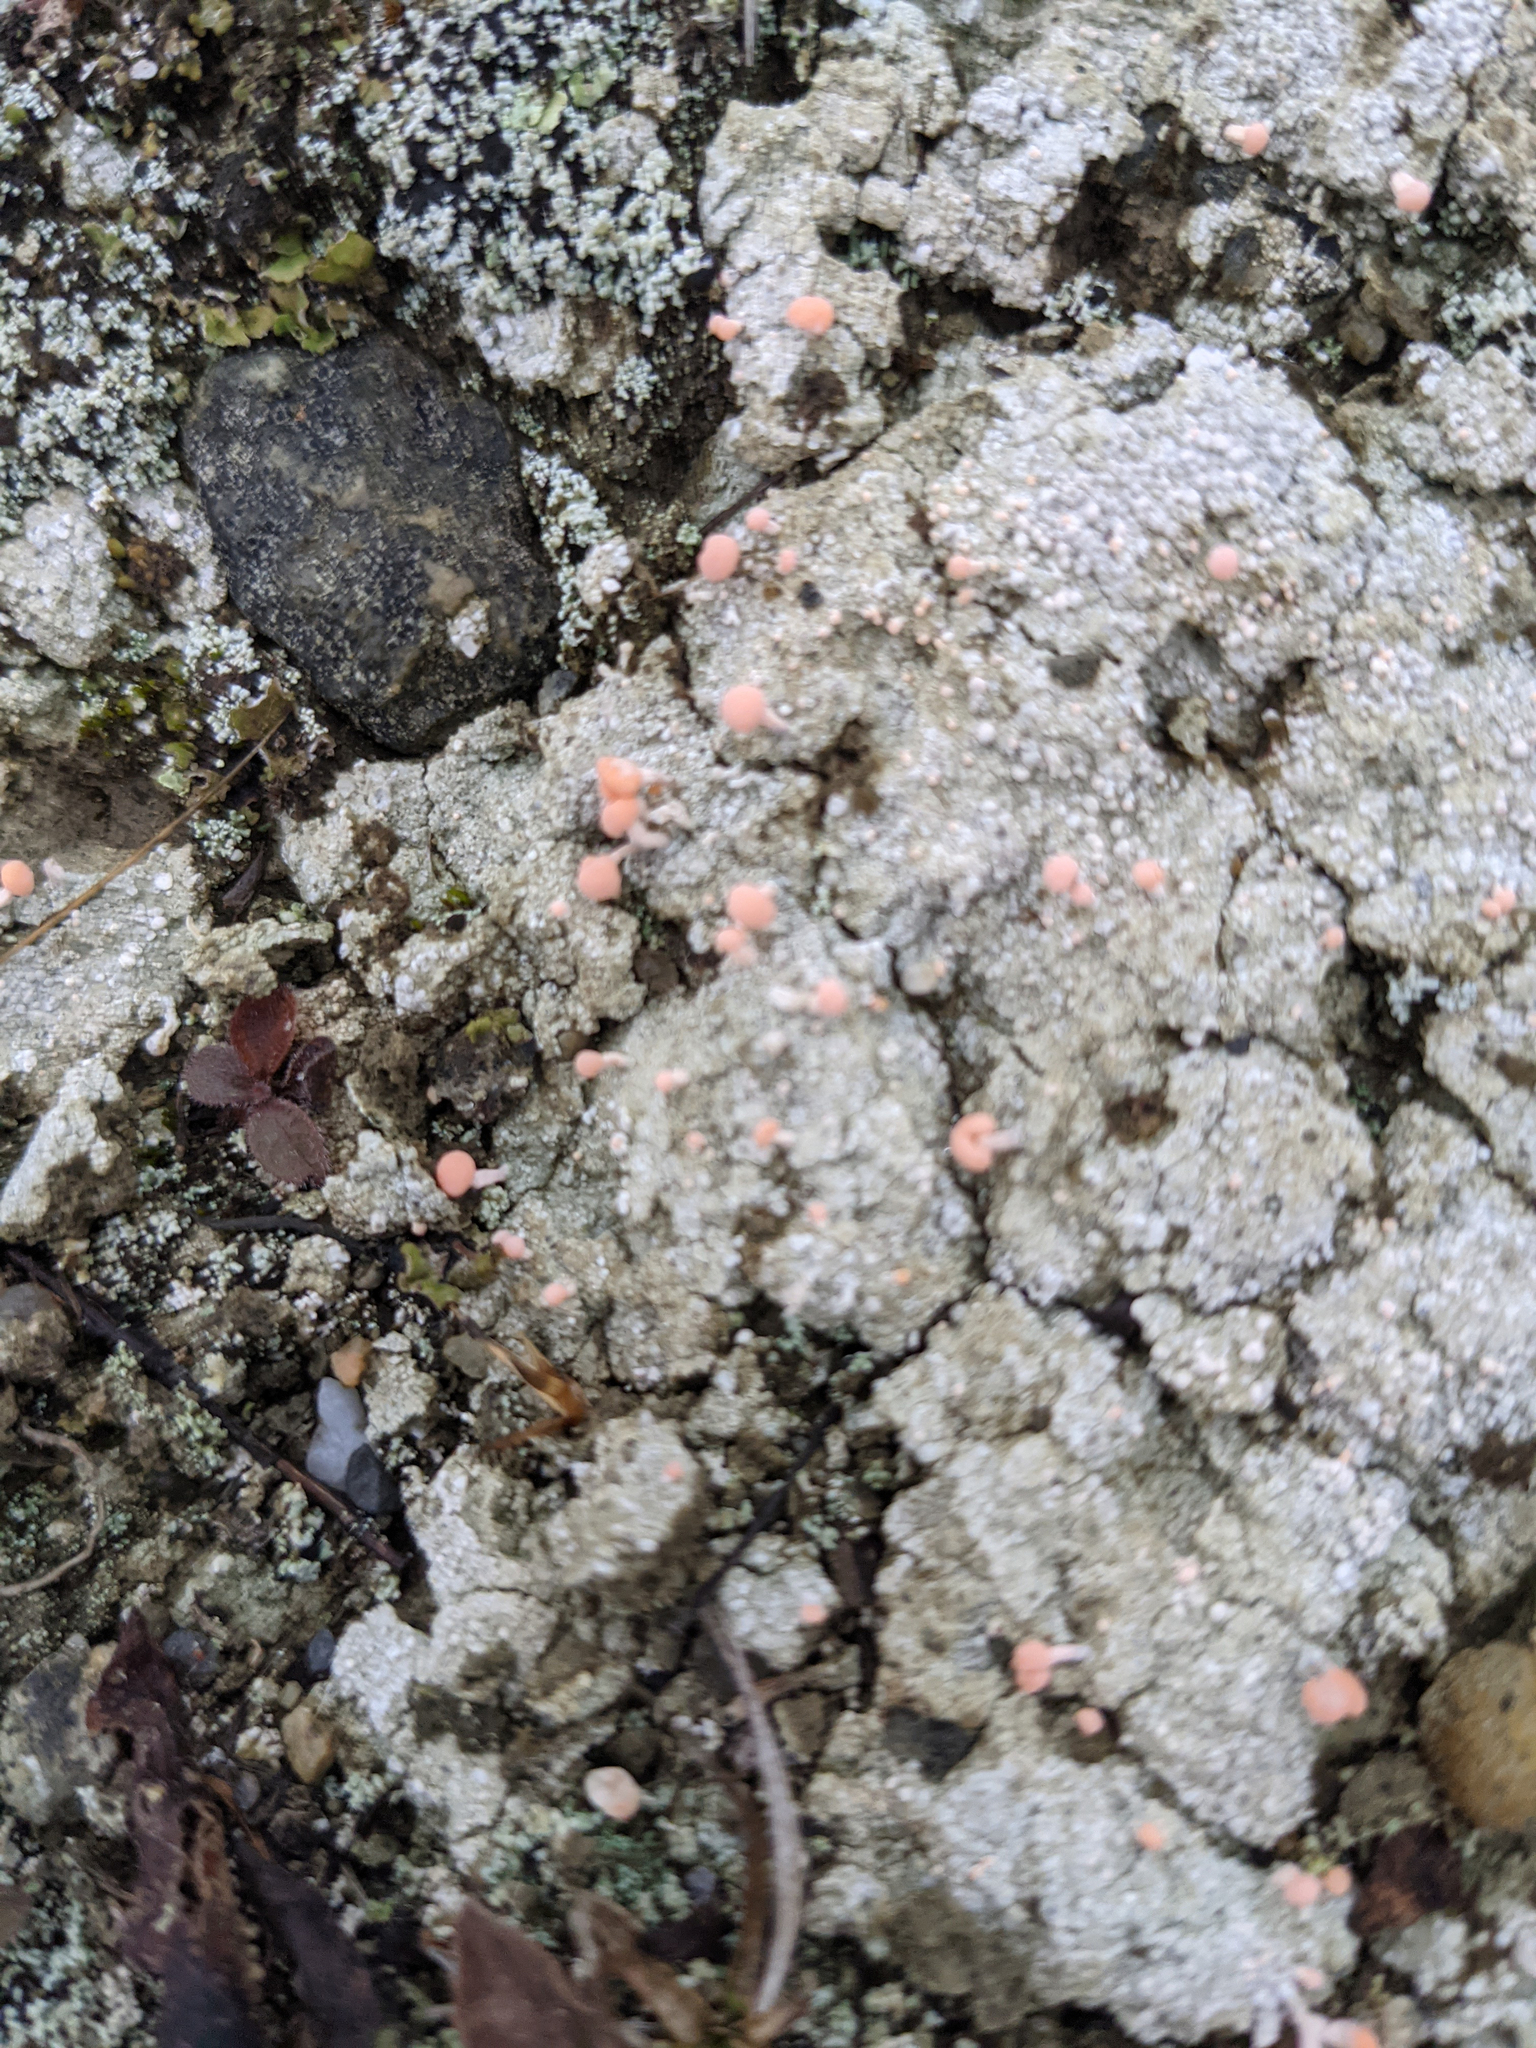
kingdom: Fungi
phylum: Ascomycota
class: Lecanoromycetes
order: Pertusariales
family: Icmadophilaceae
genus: Dibaeis
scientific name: Dibaeis baeomyces
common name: Pink earth lichen
